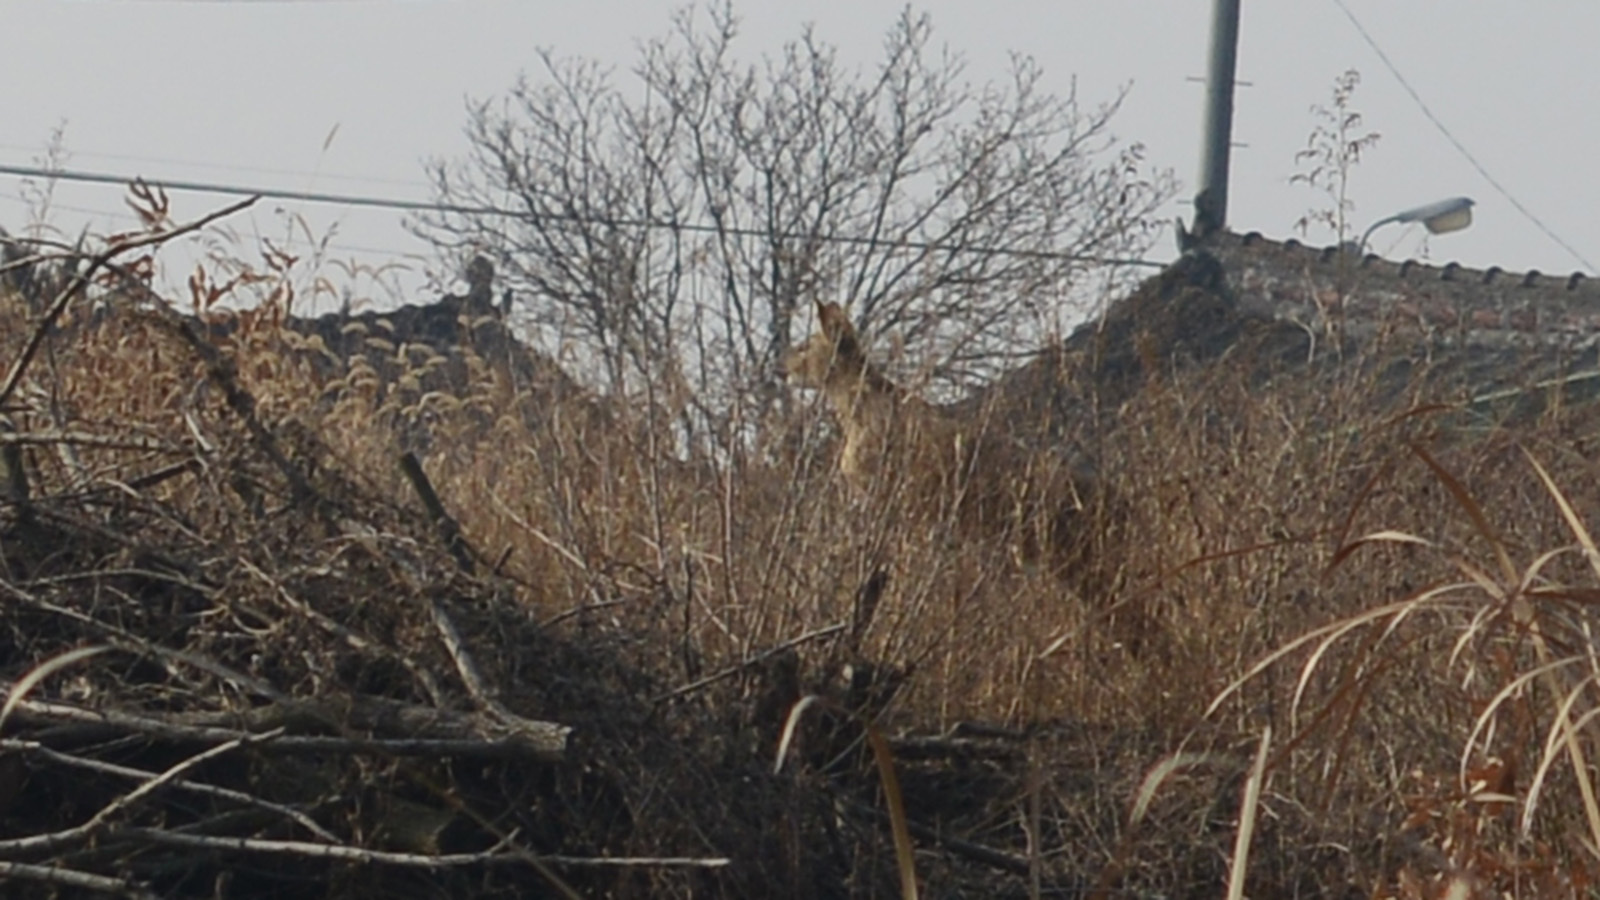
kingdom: Animalia
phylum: Chordata
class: Mammalia
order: Artiodactyla
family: Cervidae
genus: Hydropotes
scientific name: Hydropotes inermis
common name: Chinese water deer
